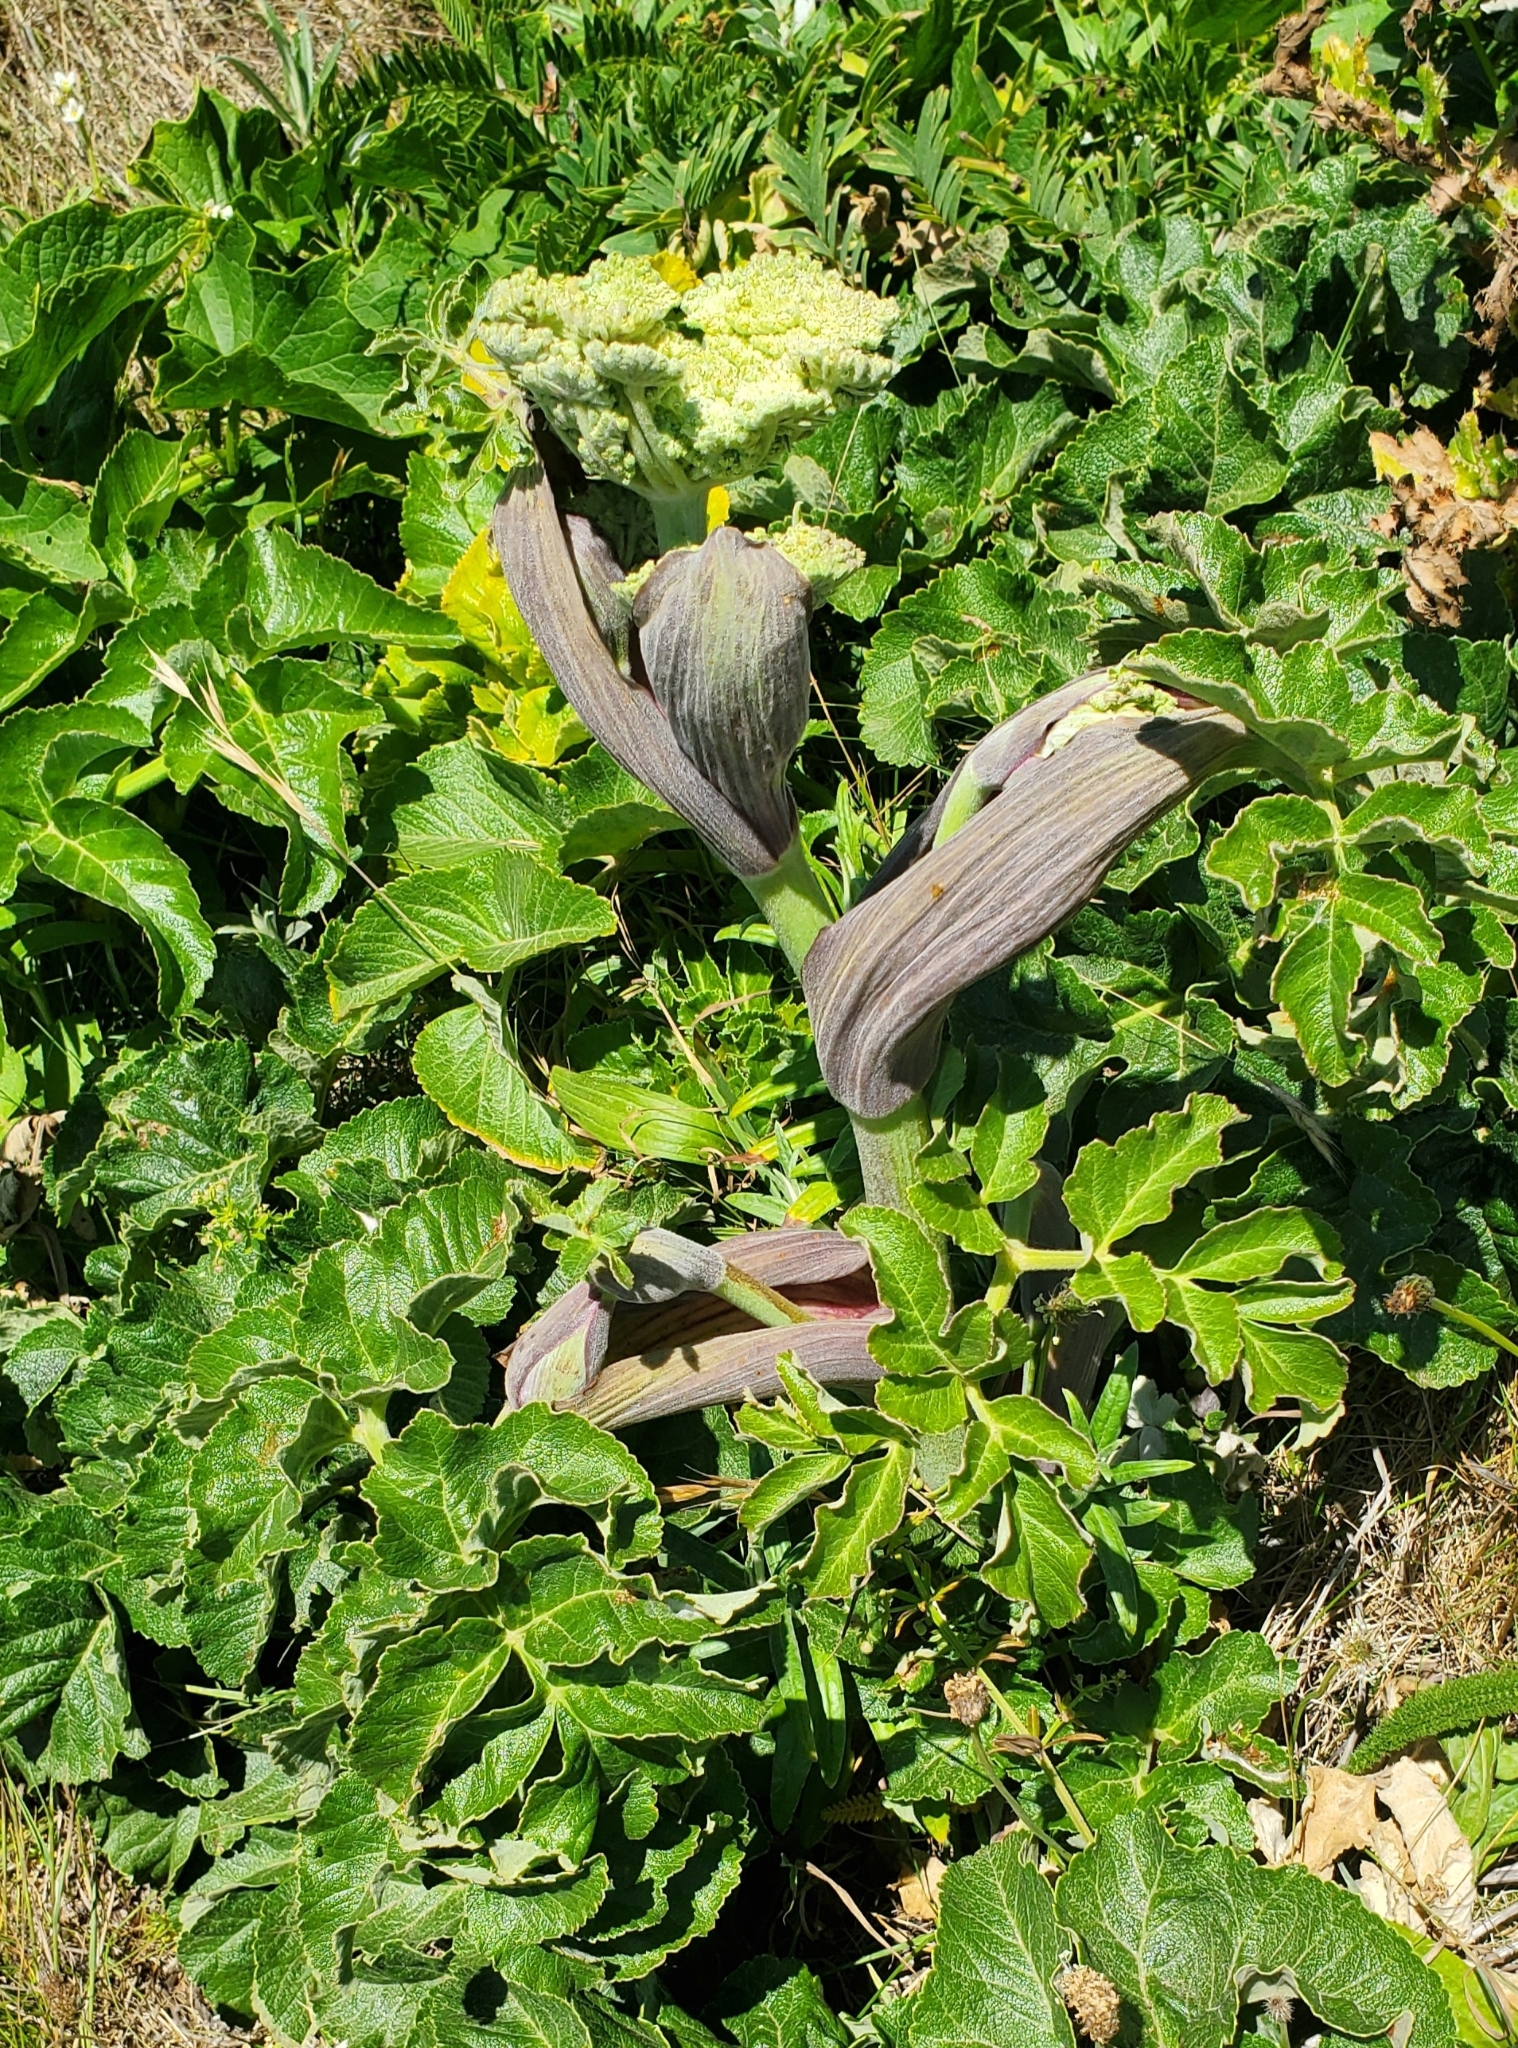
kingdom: Plantae
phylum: Tracheophyta
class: Magnoliopsida
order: Apiales
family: Apiaceae
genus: Angelica
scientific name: Angelica hendersonii
